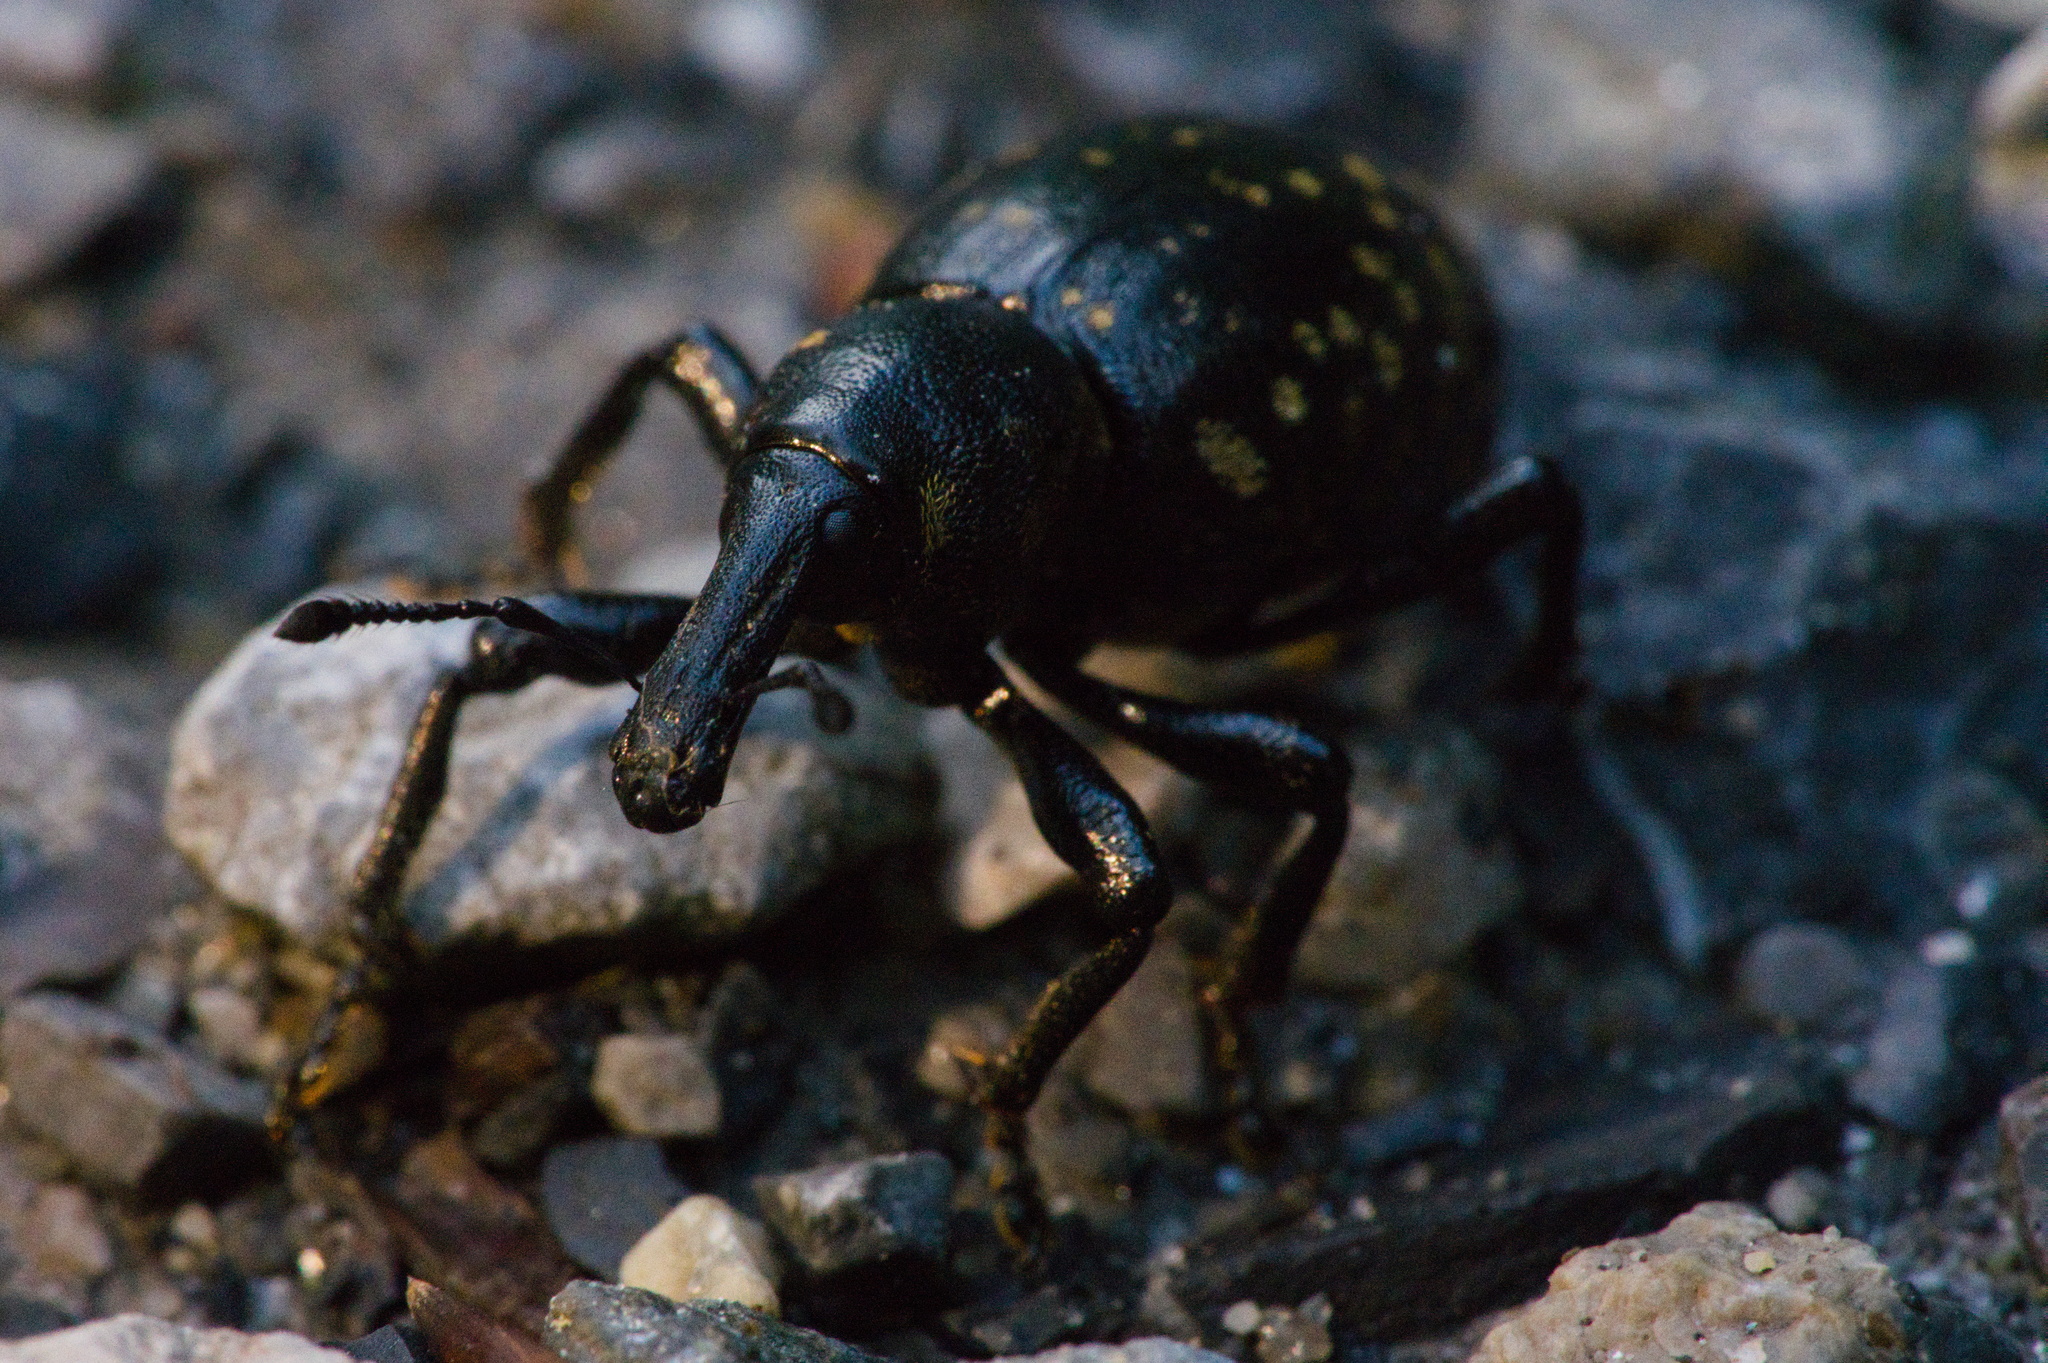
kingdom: Animalia
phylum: Arthropoda
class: Insecta
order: Coleoptera
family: Curculionidae
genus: Liparus
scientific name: Liparus glabrirostris
